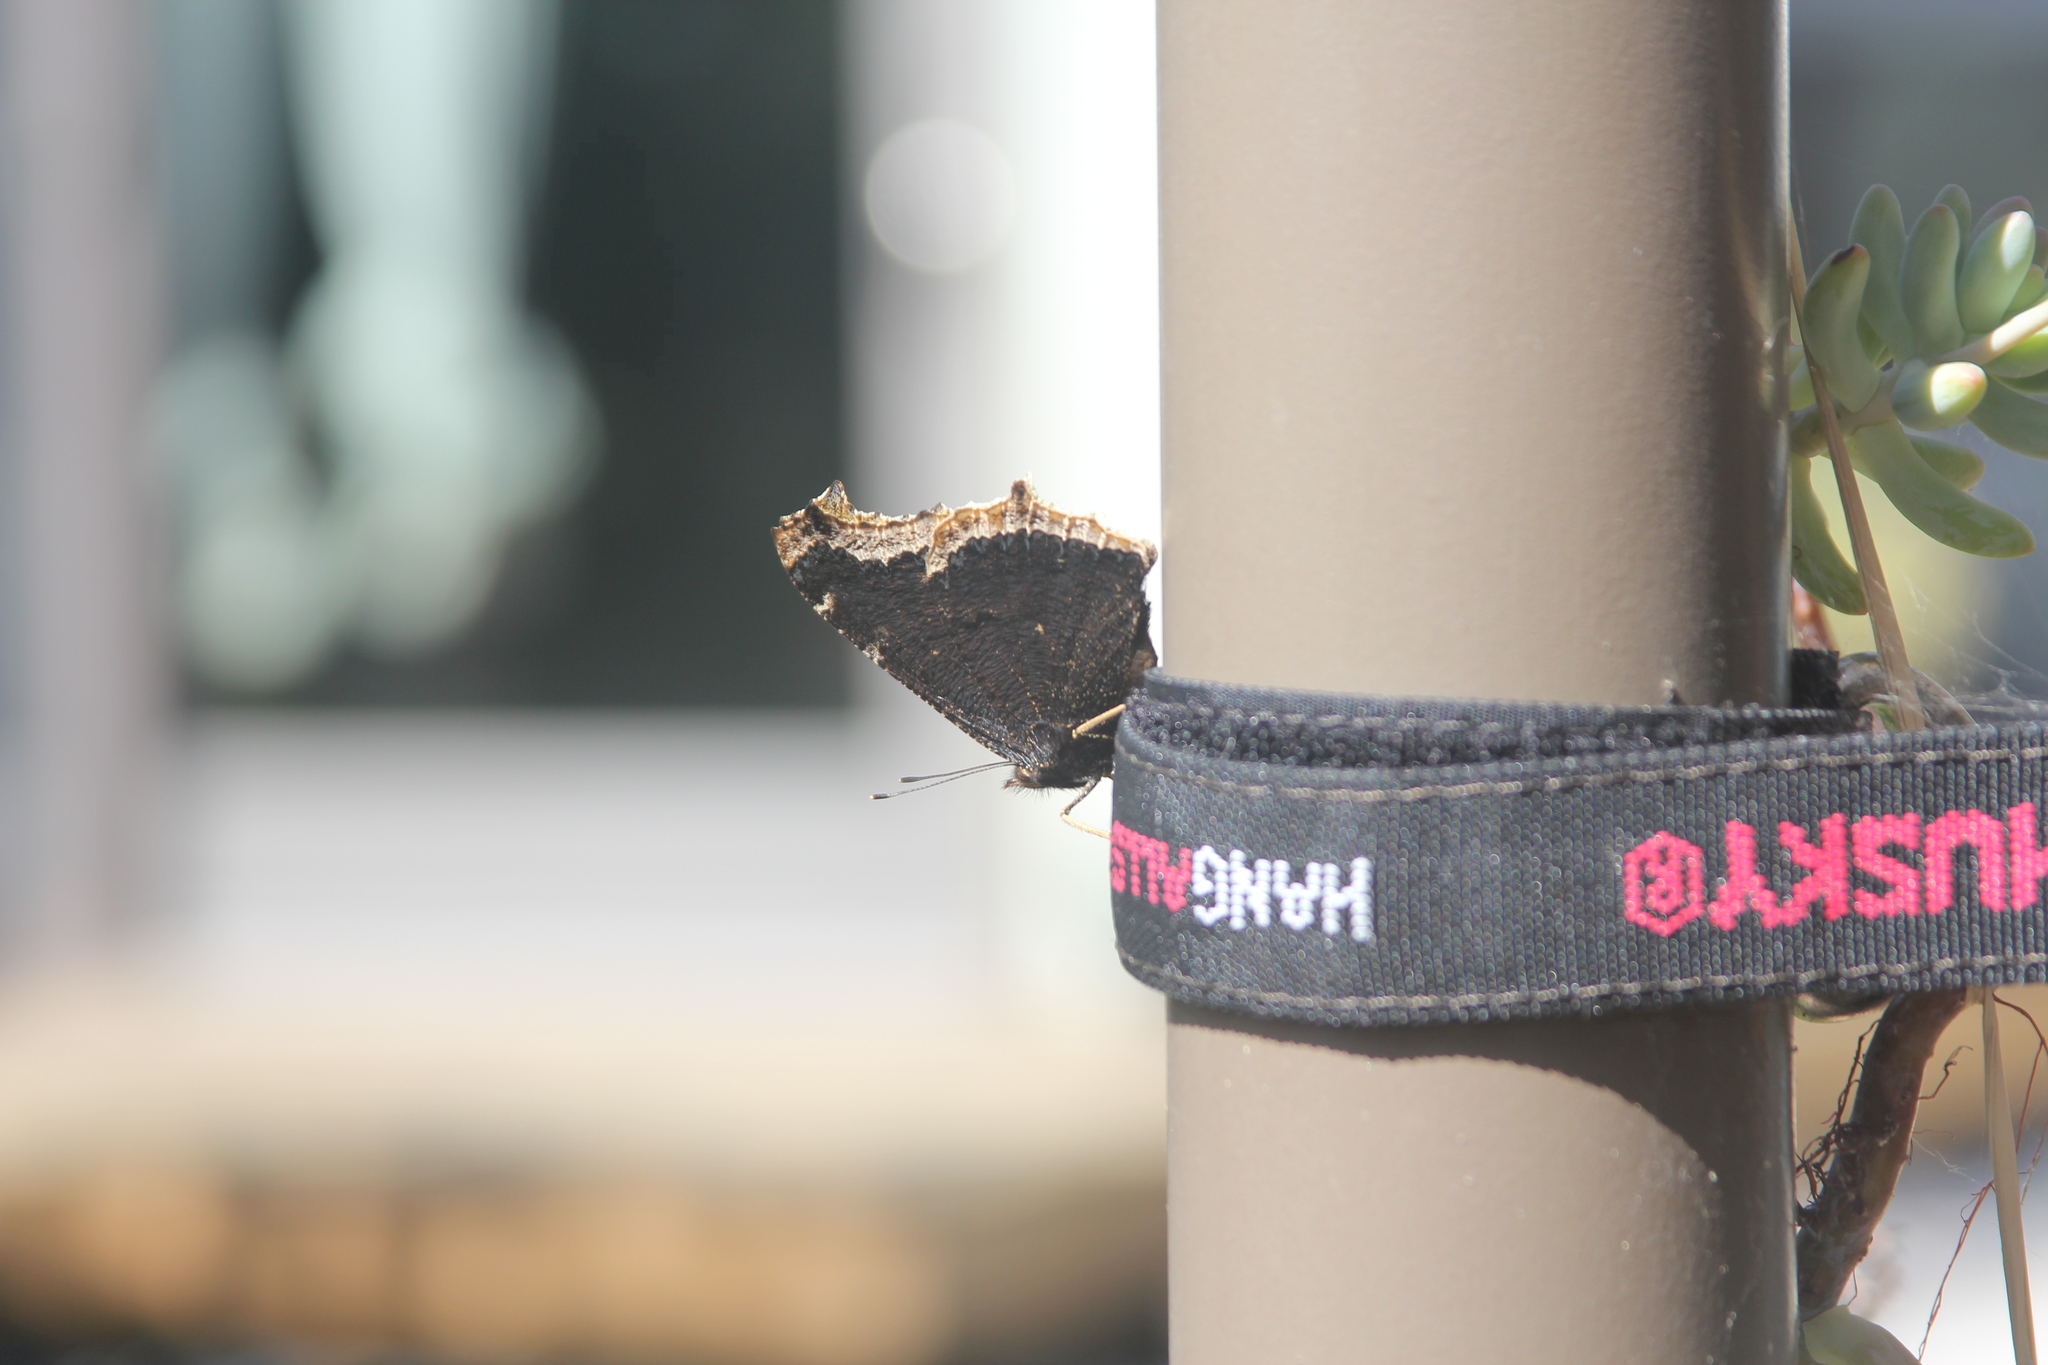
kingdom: Animalia
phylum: Arthropoda
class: Insecta
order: Lepidoptera
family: Nymphalidae
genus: Nymphalis
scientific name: Nymphalis antiopa
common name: Camberwell beauty
